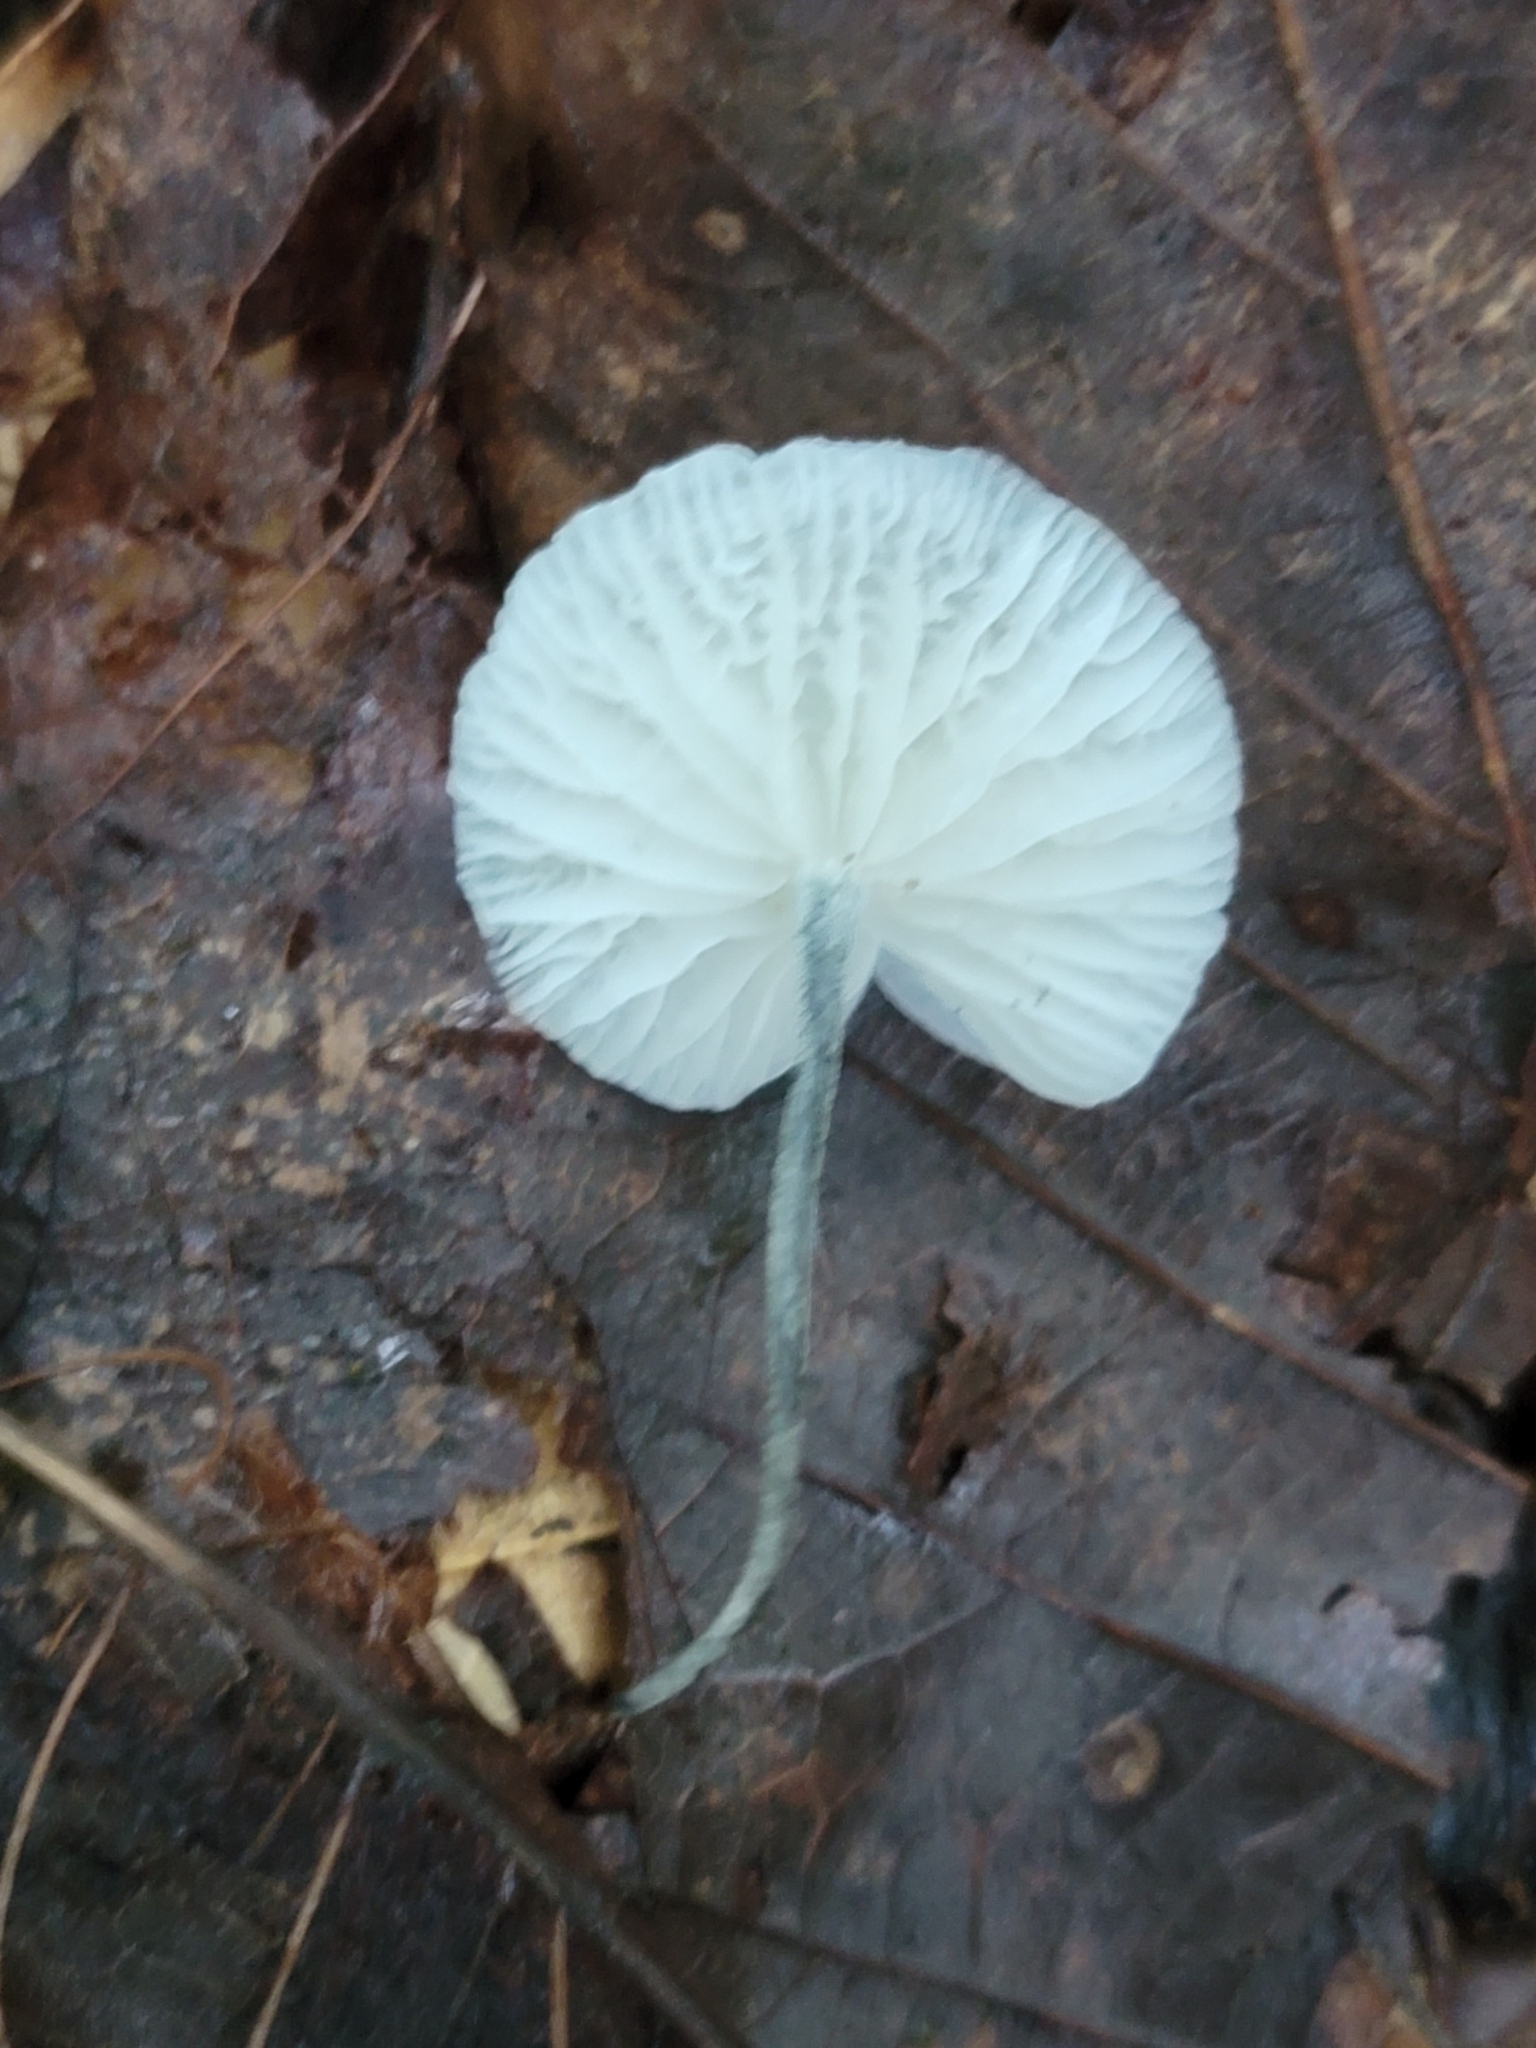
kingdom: Fungi
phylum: Basidiomycota
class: Agaricomycetes
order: Agaricales
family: Marasmiaceae
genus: Tetrapyrgos
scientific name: Tetrapyrgos nigripes
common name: Black-stalked marasmius
